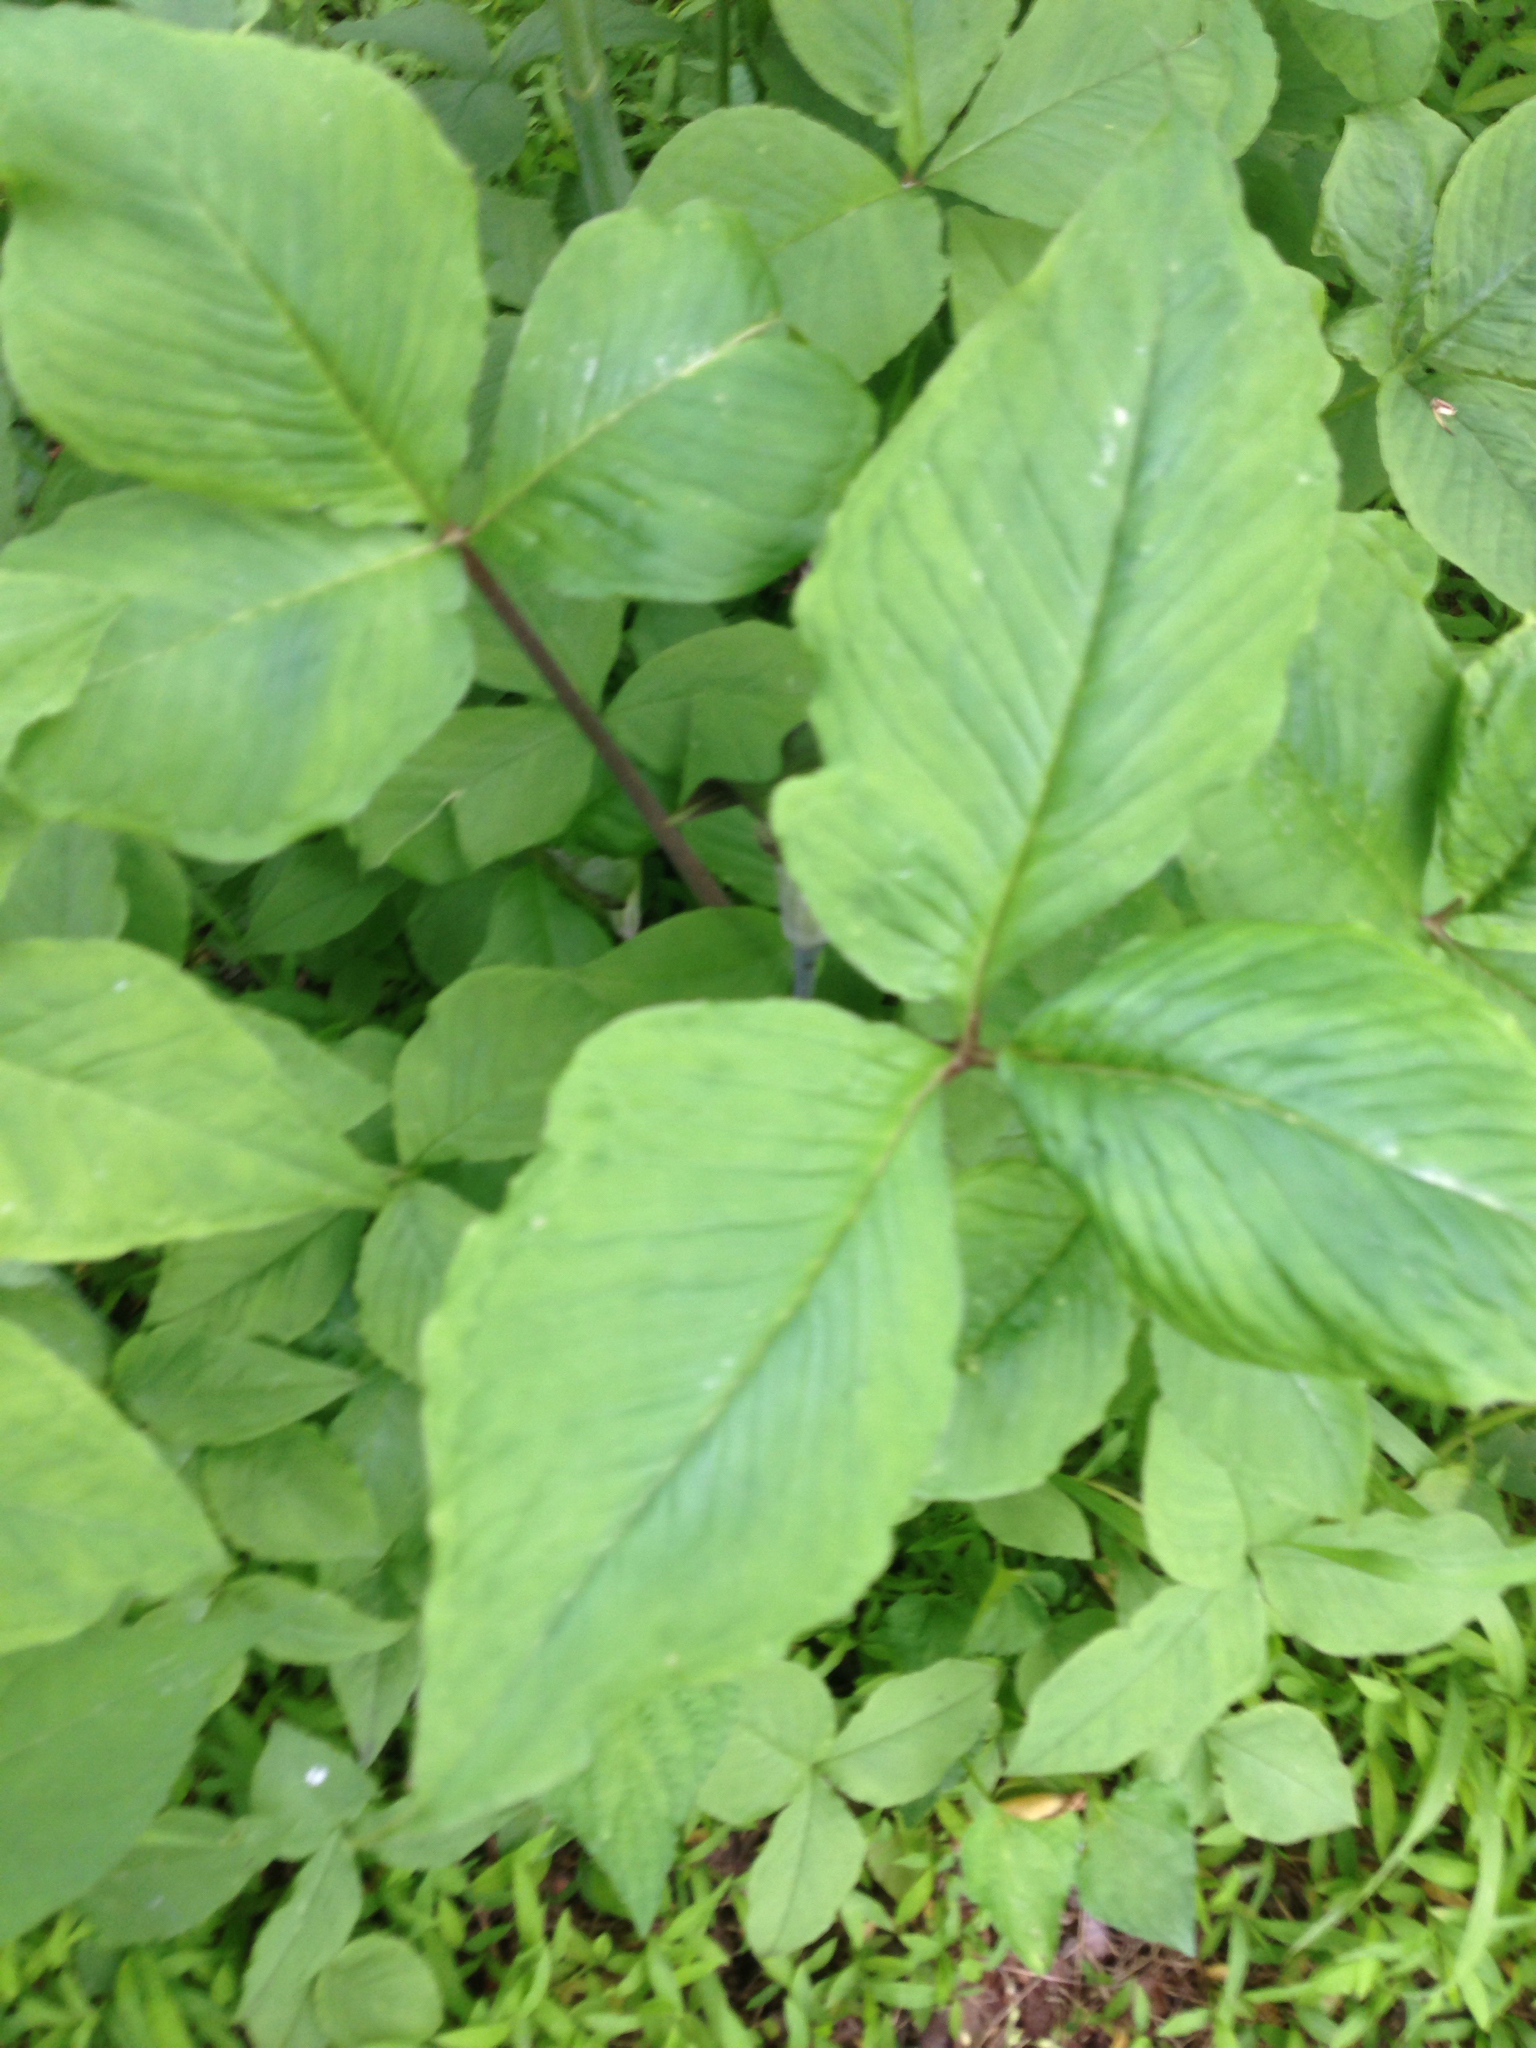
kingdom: Plantae
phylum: Tracheophyta
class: Liliopsida
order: Alismatales
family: Araceae
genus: Arisaema
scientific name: Arisaema triphyllum
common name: Jack-in-the-pulpit
